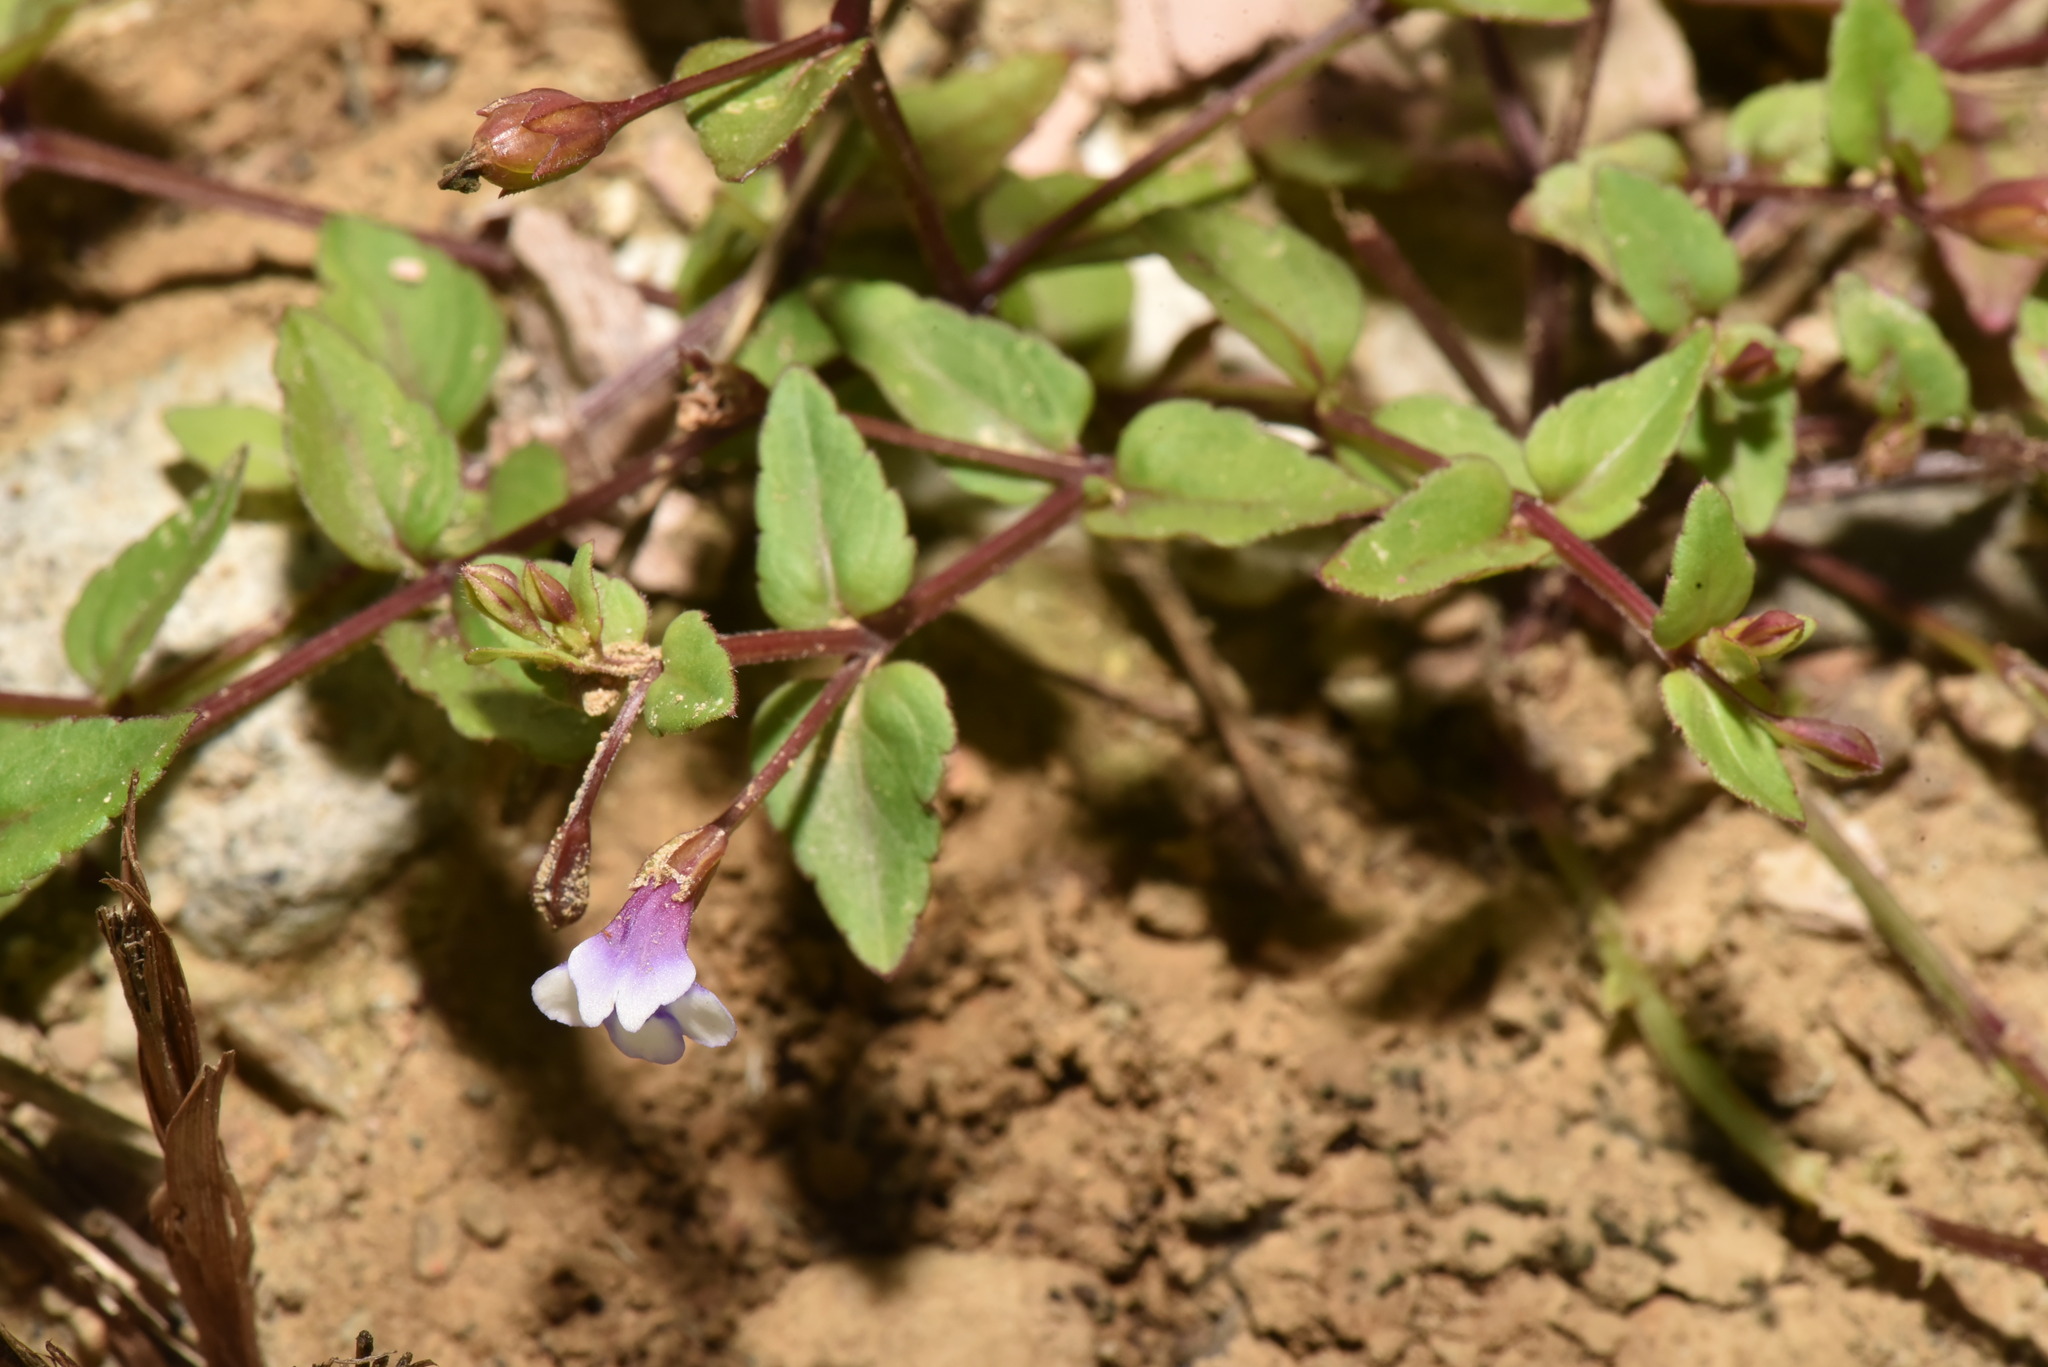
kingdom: Plantae
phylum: Tracheophyta
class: Magnoliopsida
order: Lamiales
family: Linderniaceae
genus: Torenia
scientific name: Torenia crustacea
